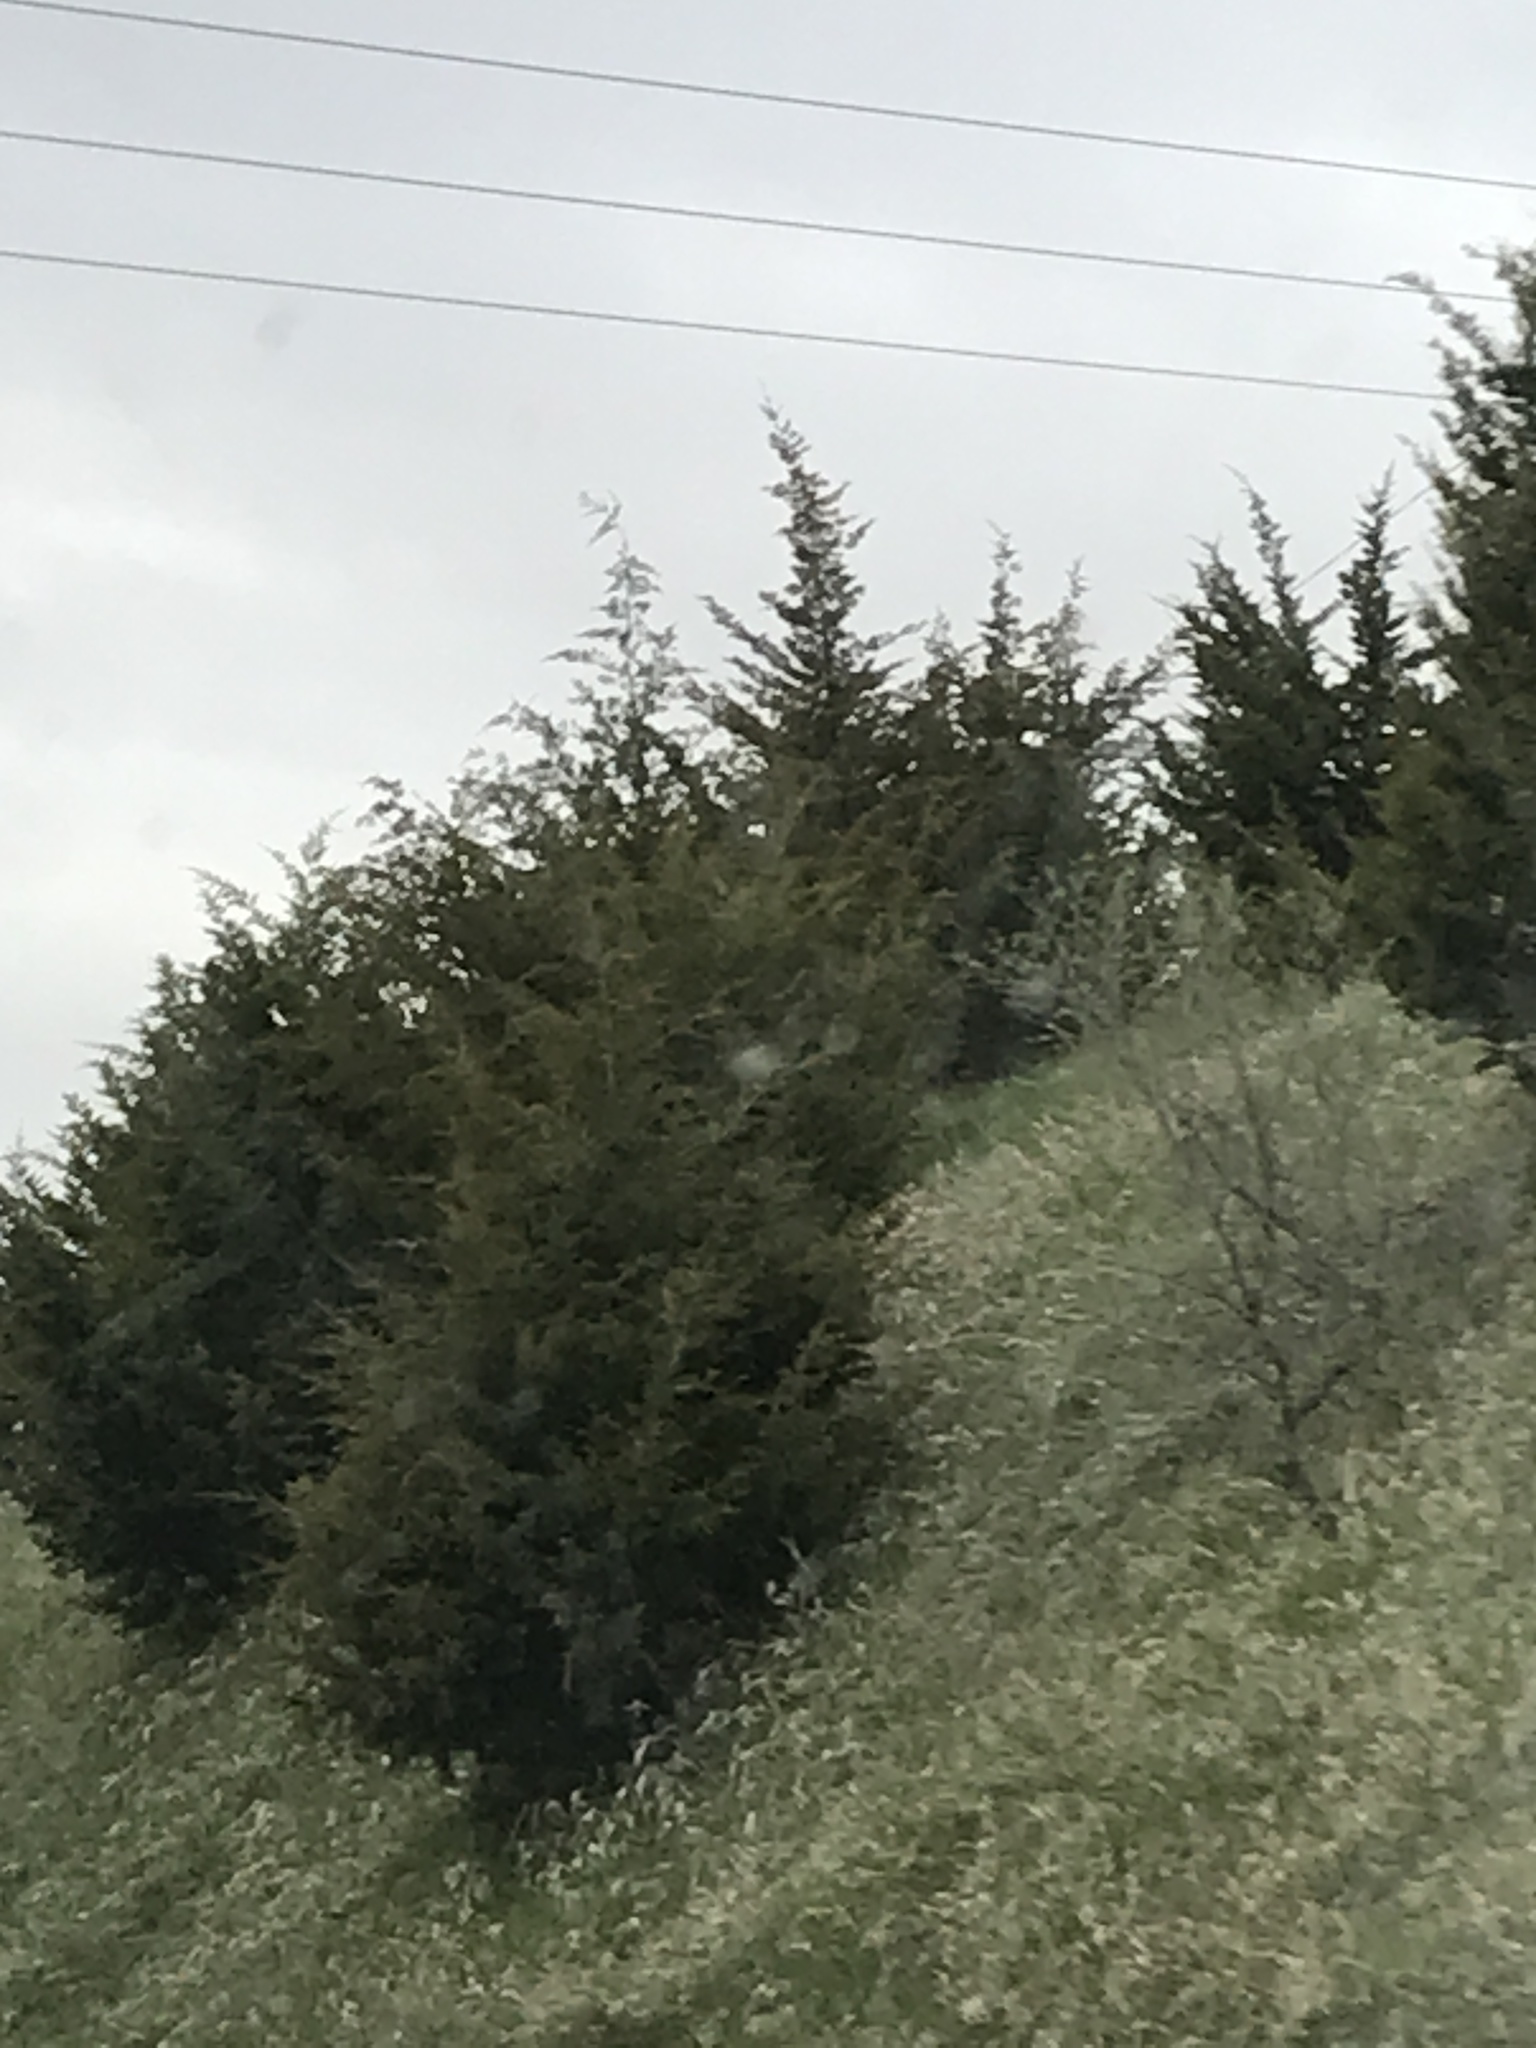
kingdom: Plantae
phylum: Tracheophyta
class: Pinopsida
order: Pinales
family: Cupressaceae
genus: Juniperus
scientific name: Juniperus virginiana
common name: Red juniper
